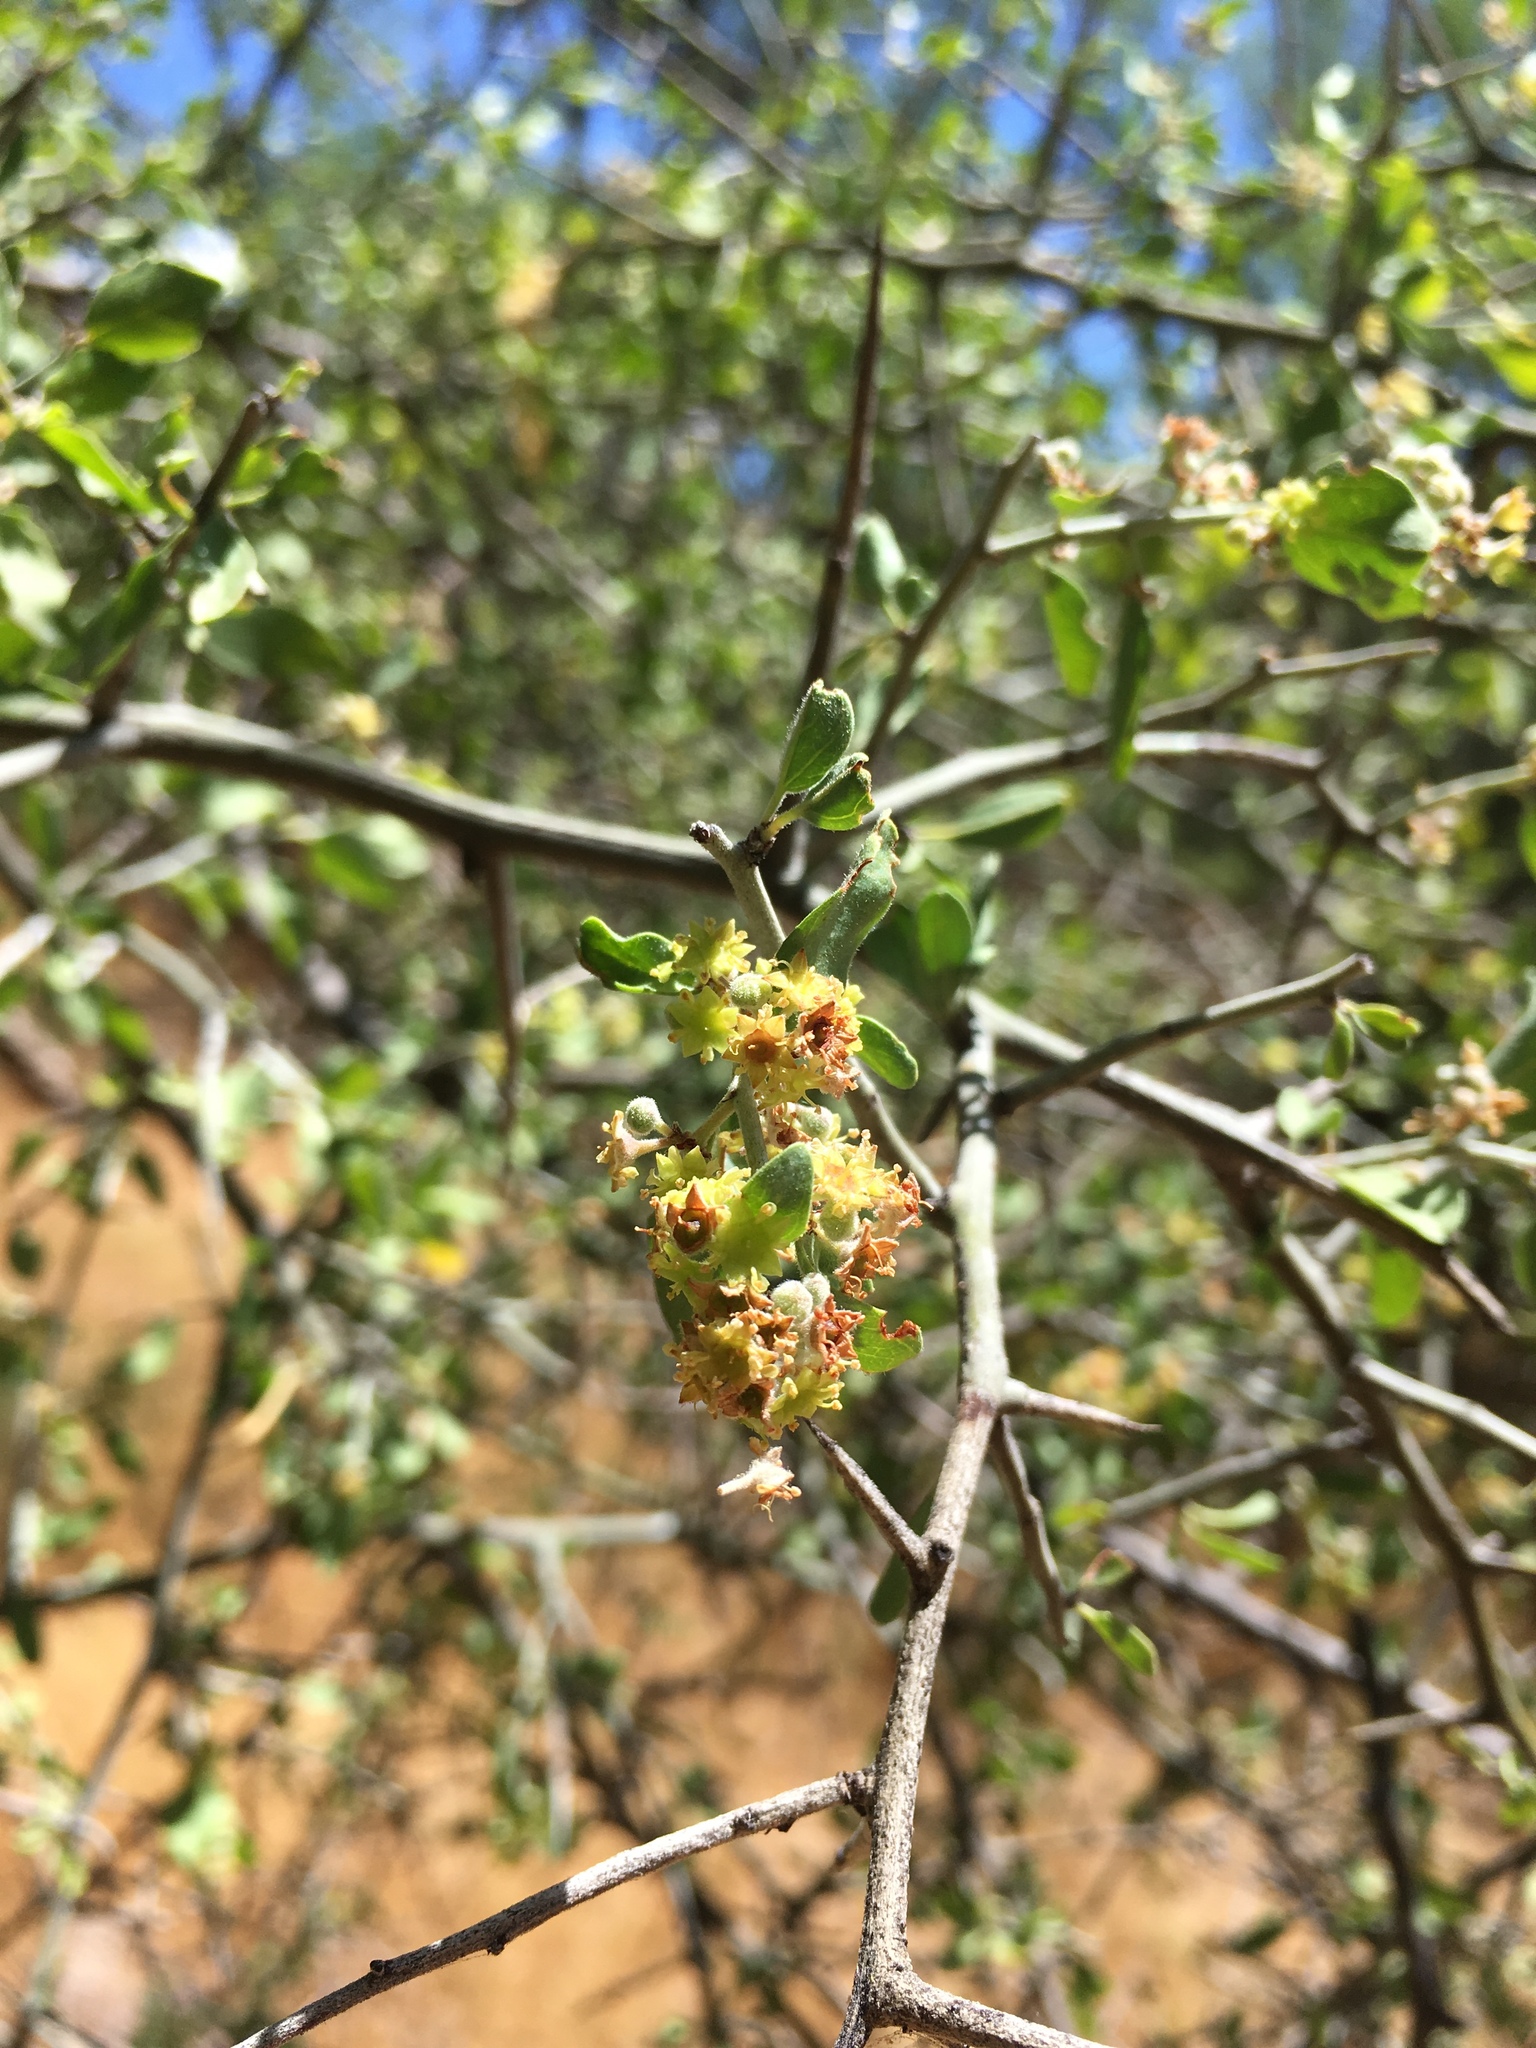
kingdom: Plantae
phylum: Tracheophyta
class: Magnoliopsida
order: Rosales
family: Rhamnaceae
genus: Sarcomphalus
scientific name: Sarcomphalus obtusifolius
